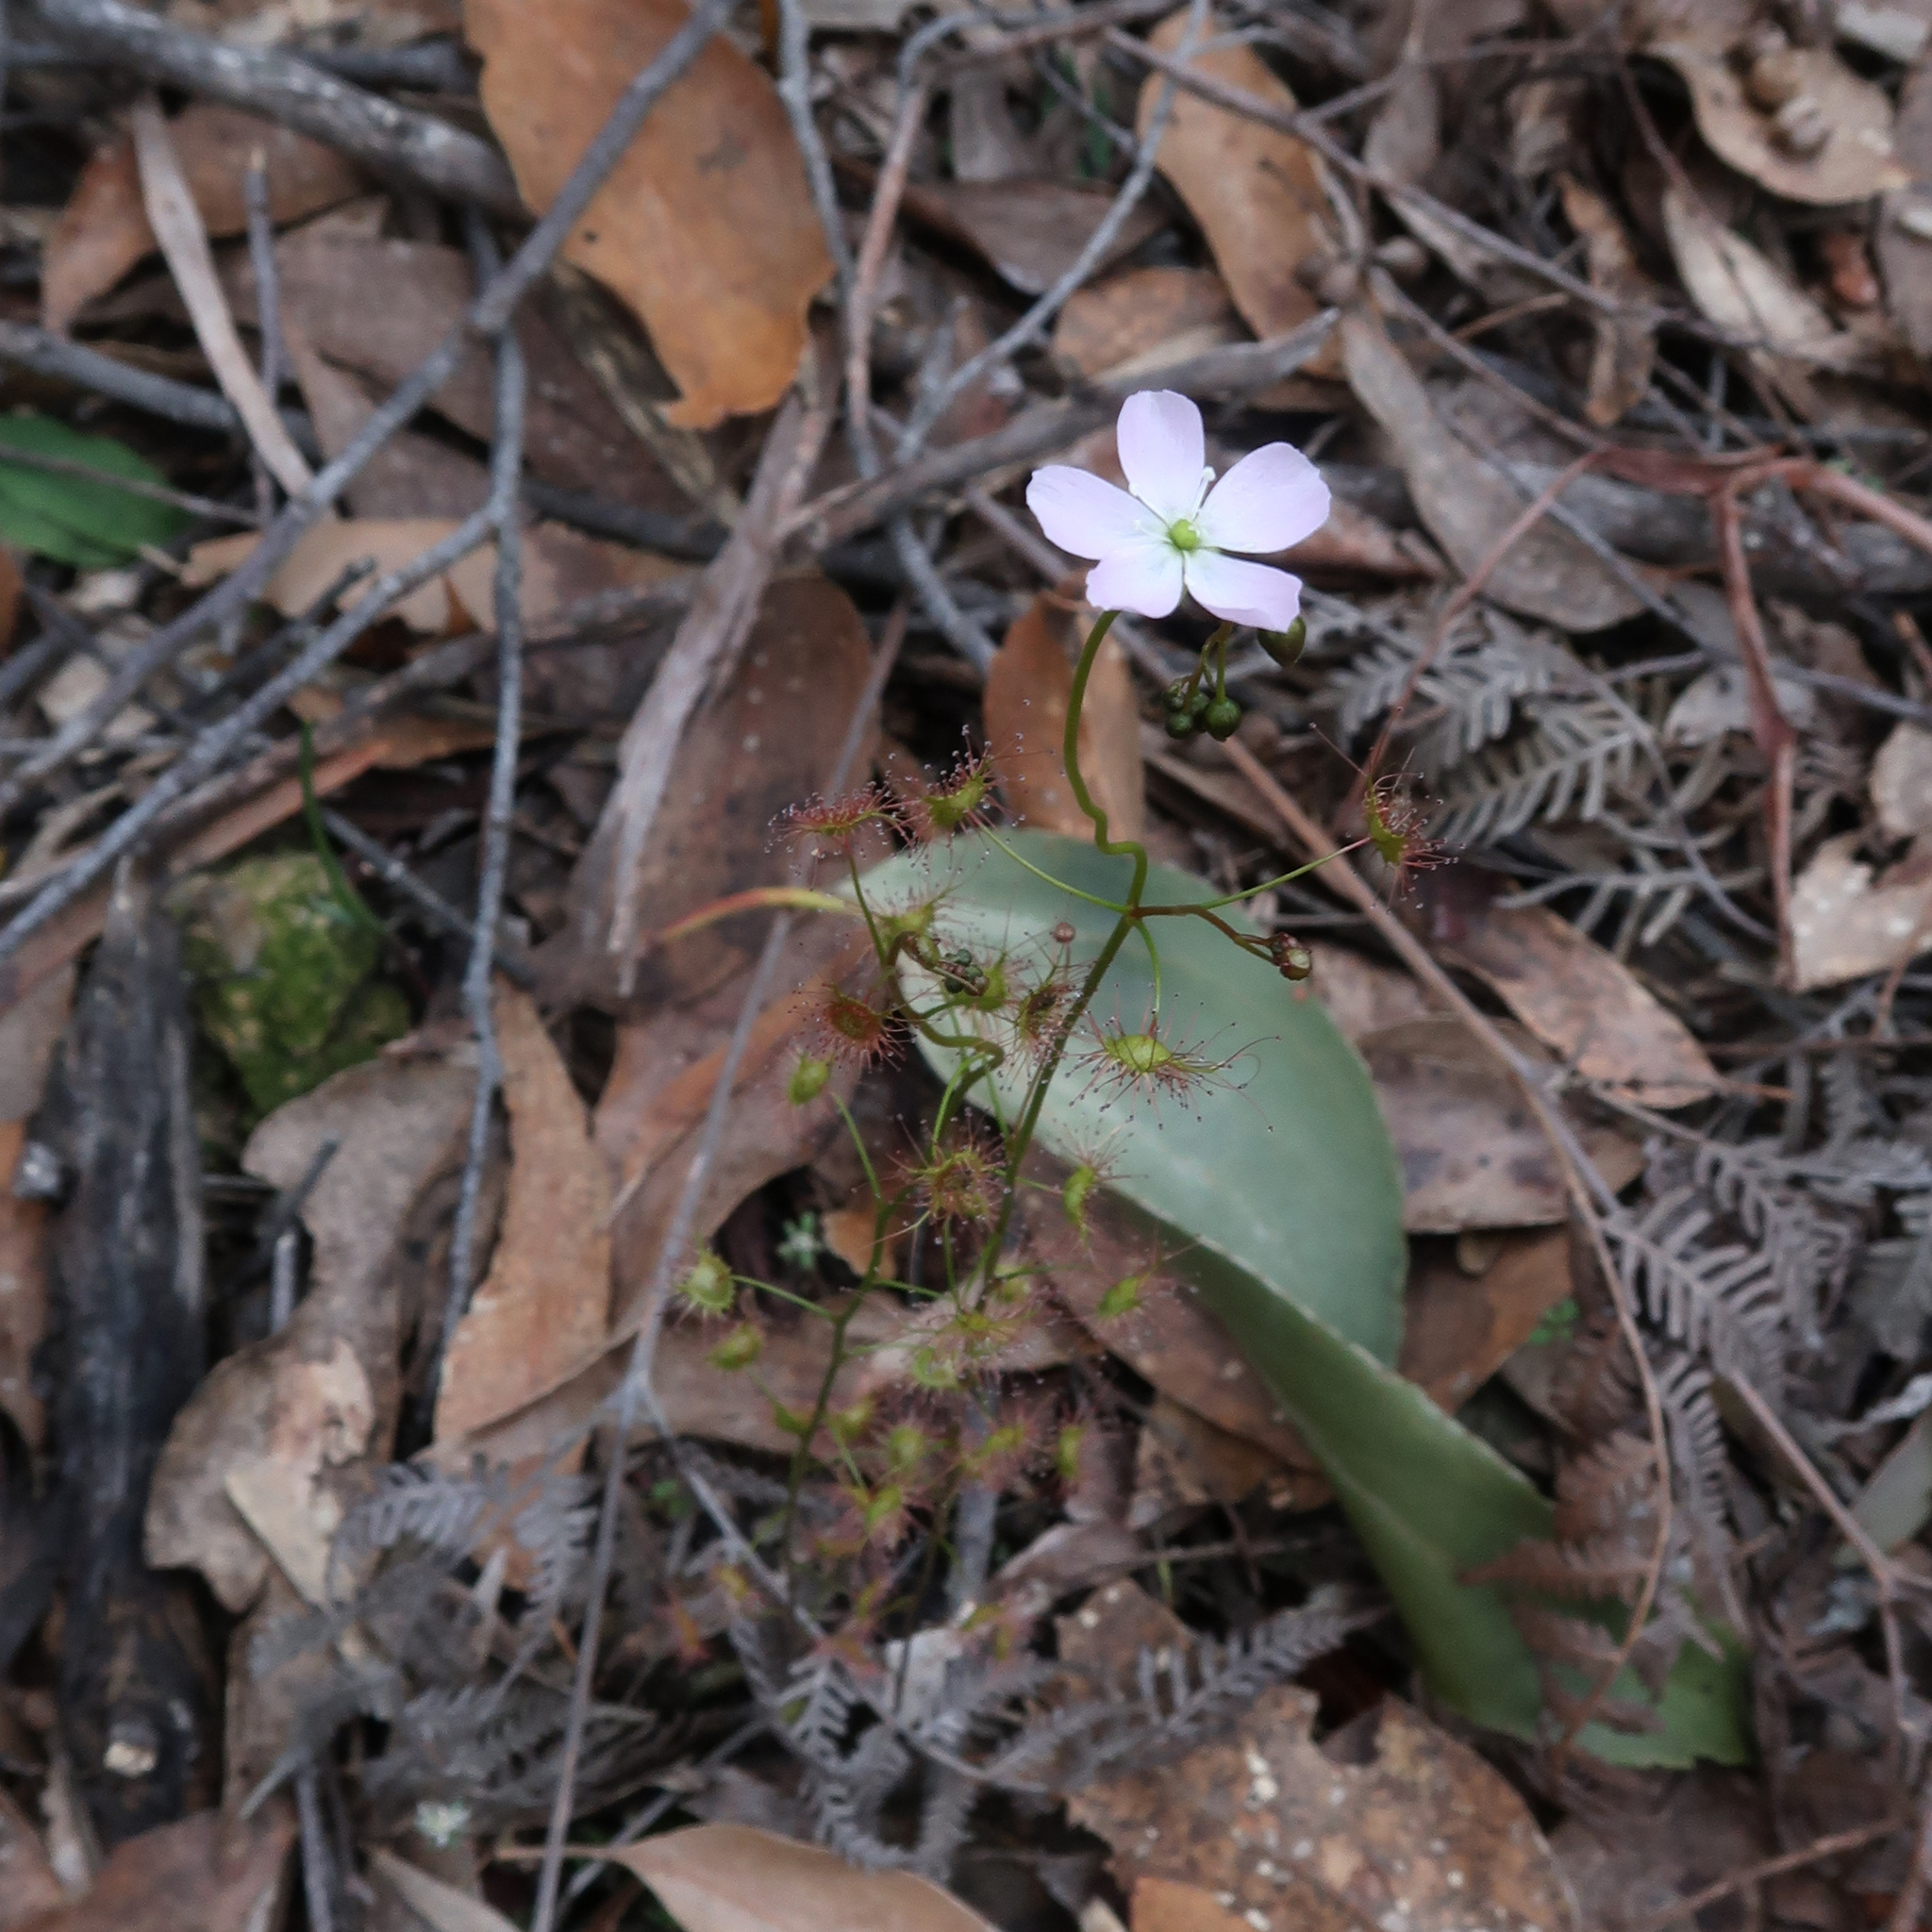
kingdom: Plantae
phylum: Tracheophyta
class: Magnoliopsida
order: Caryophyllales
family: Droseraceae
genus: Drosera
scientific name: Drosera peltata
